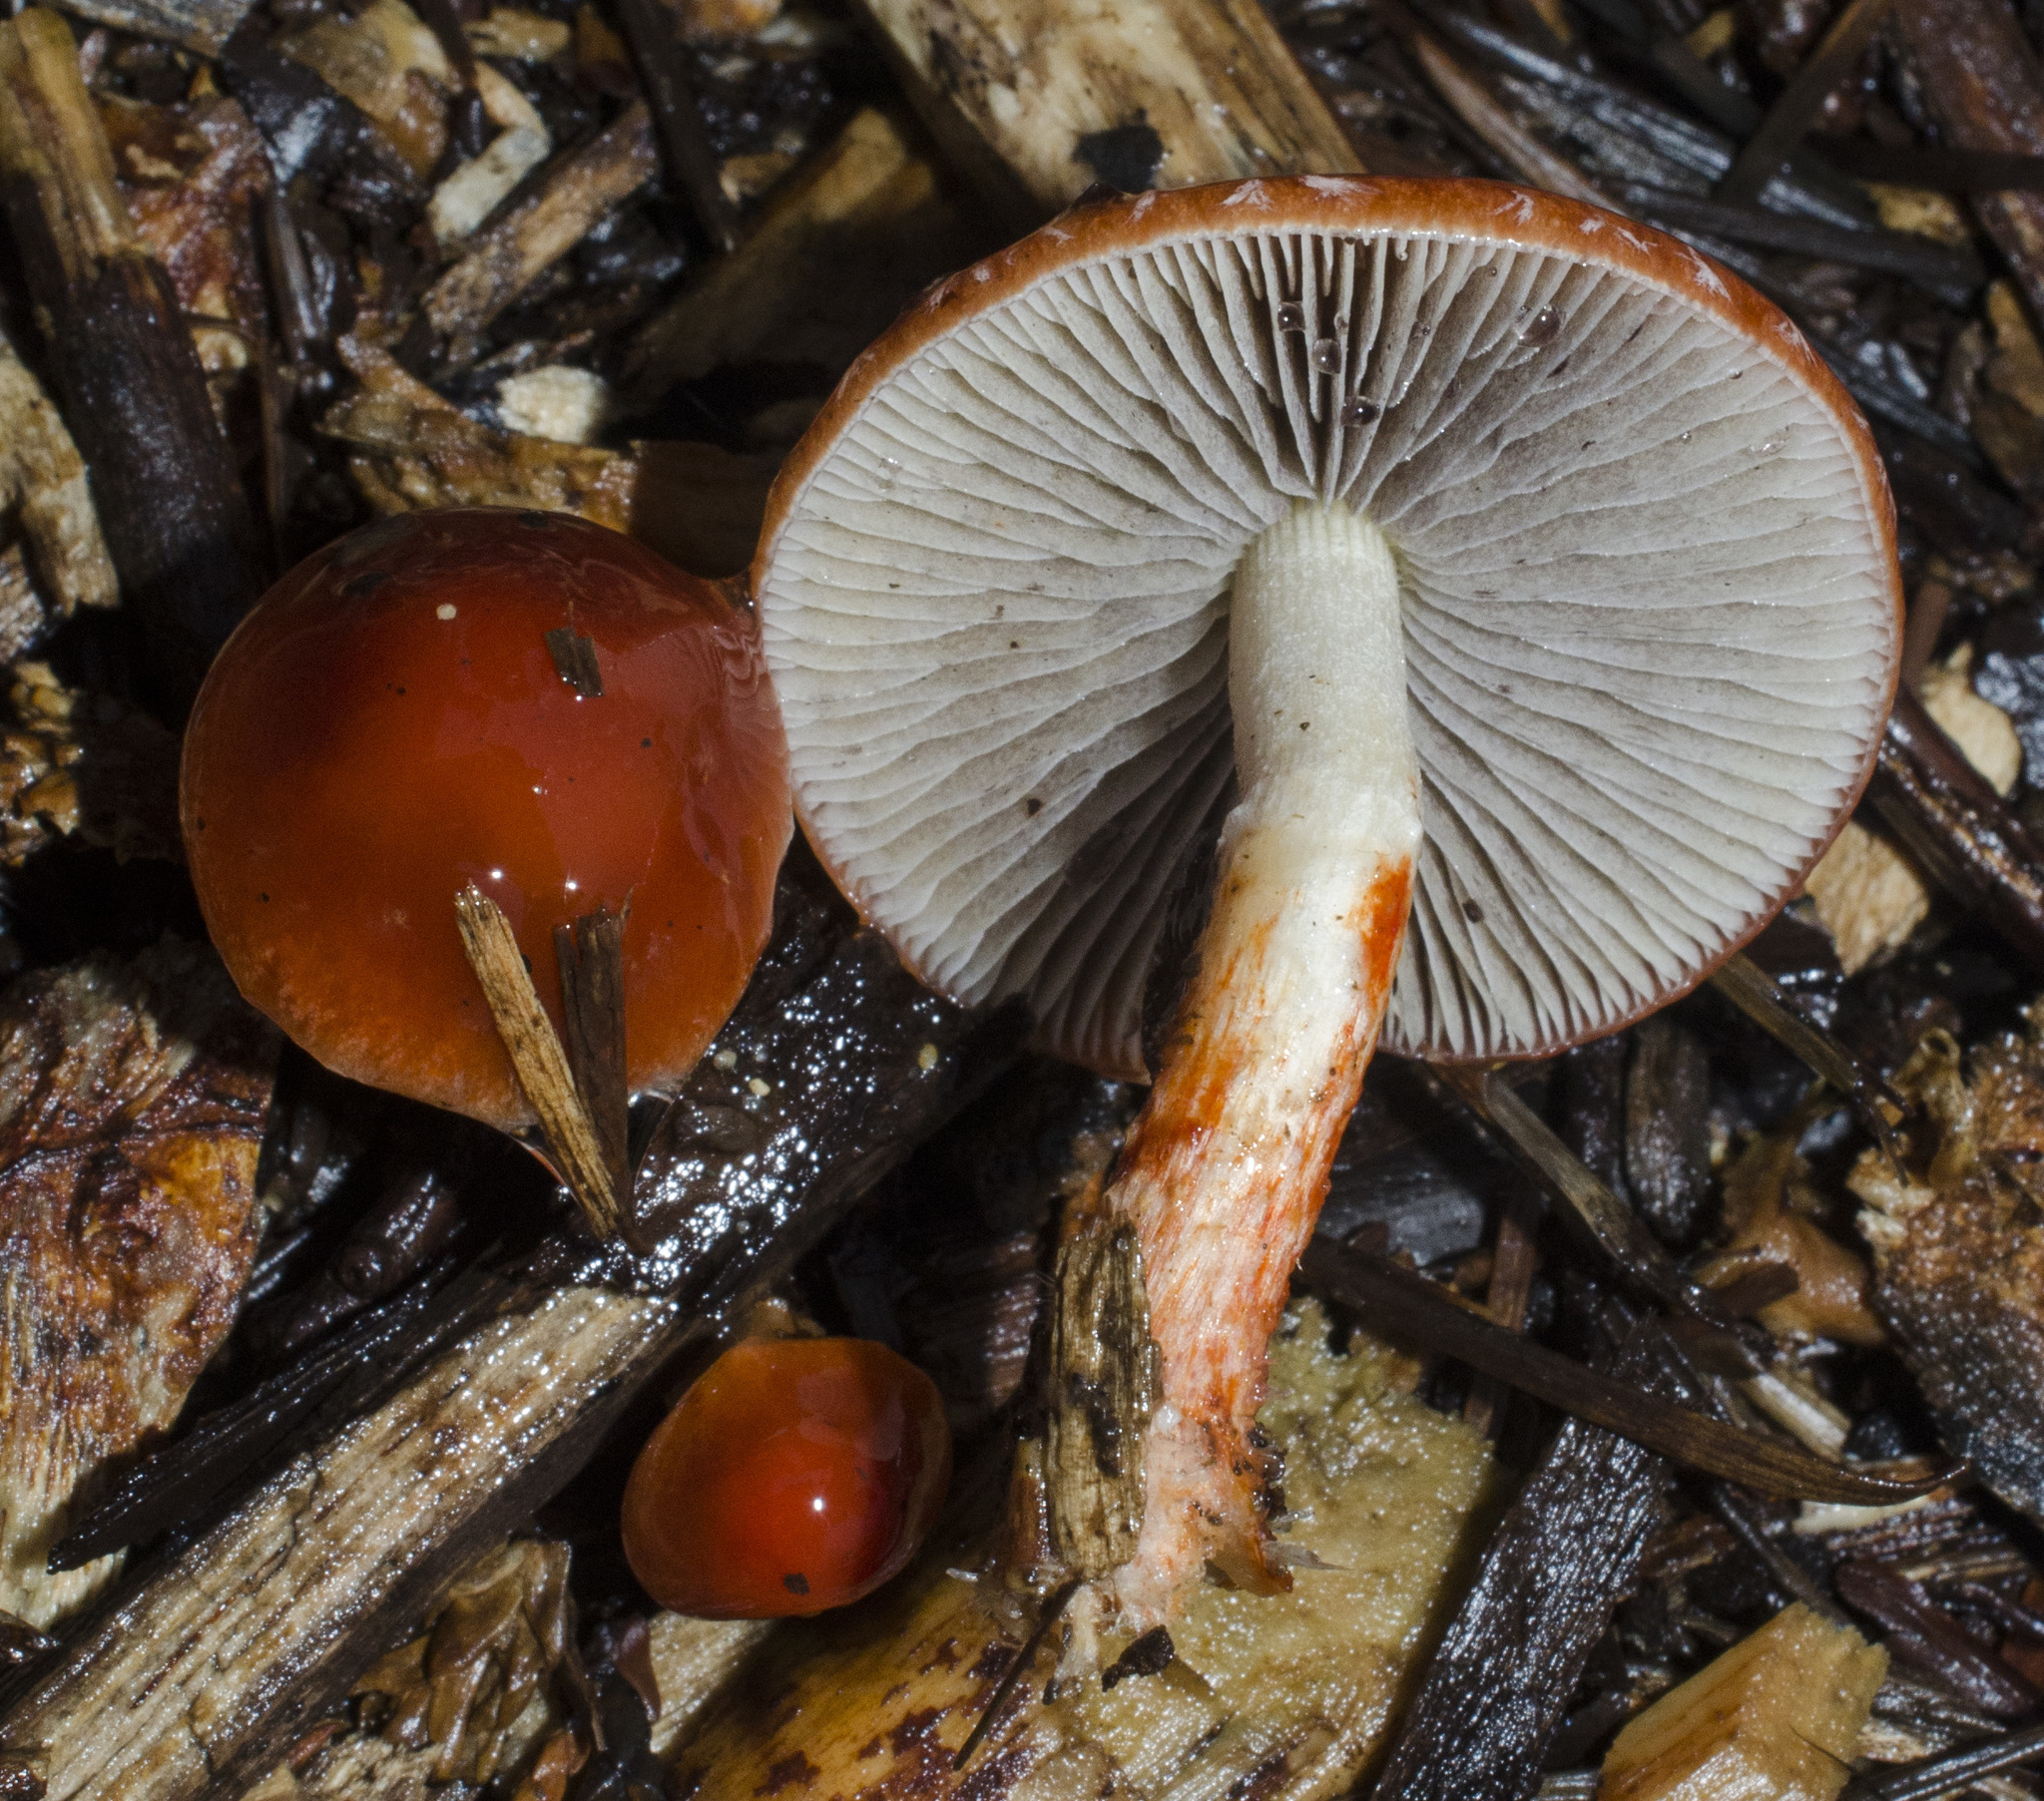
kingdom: Fungi
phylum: Basidiomycota
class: Agaricomycetes
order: Agaricales
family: Strophariaceae
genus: Leratiomyces
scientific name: Leratiomyces ceres
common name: Redlead roundhead
